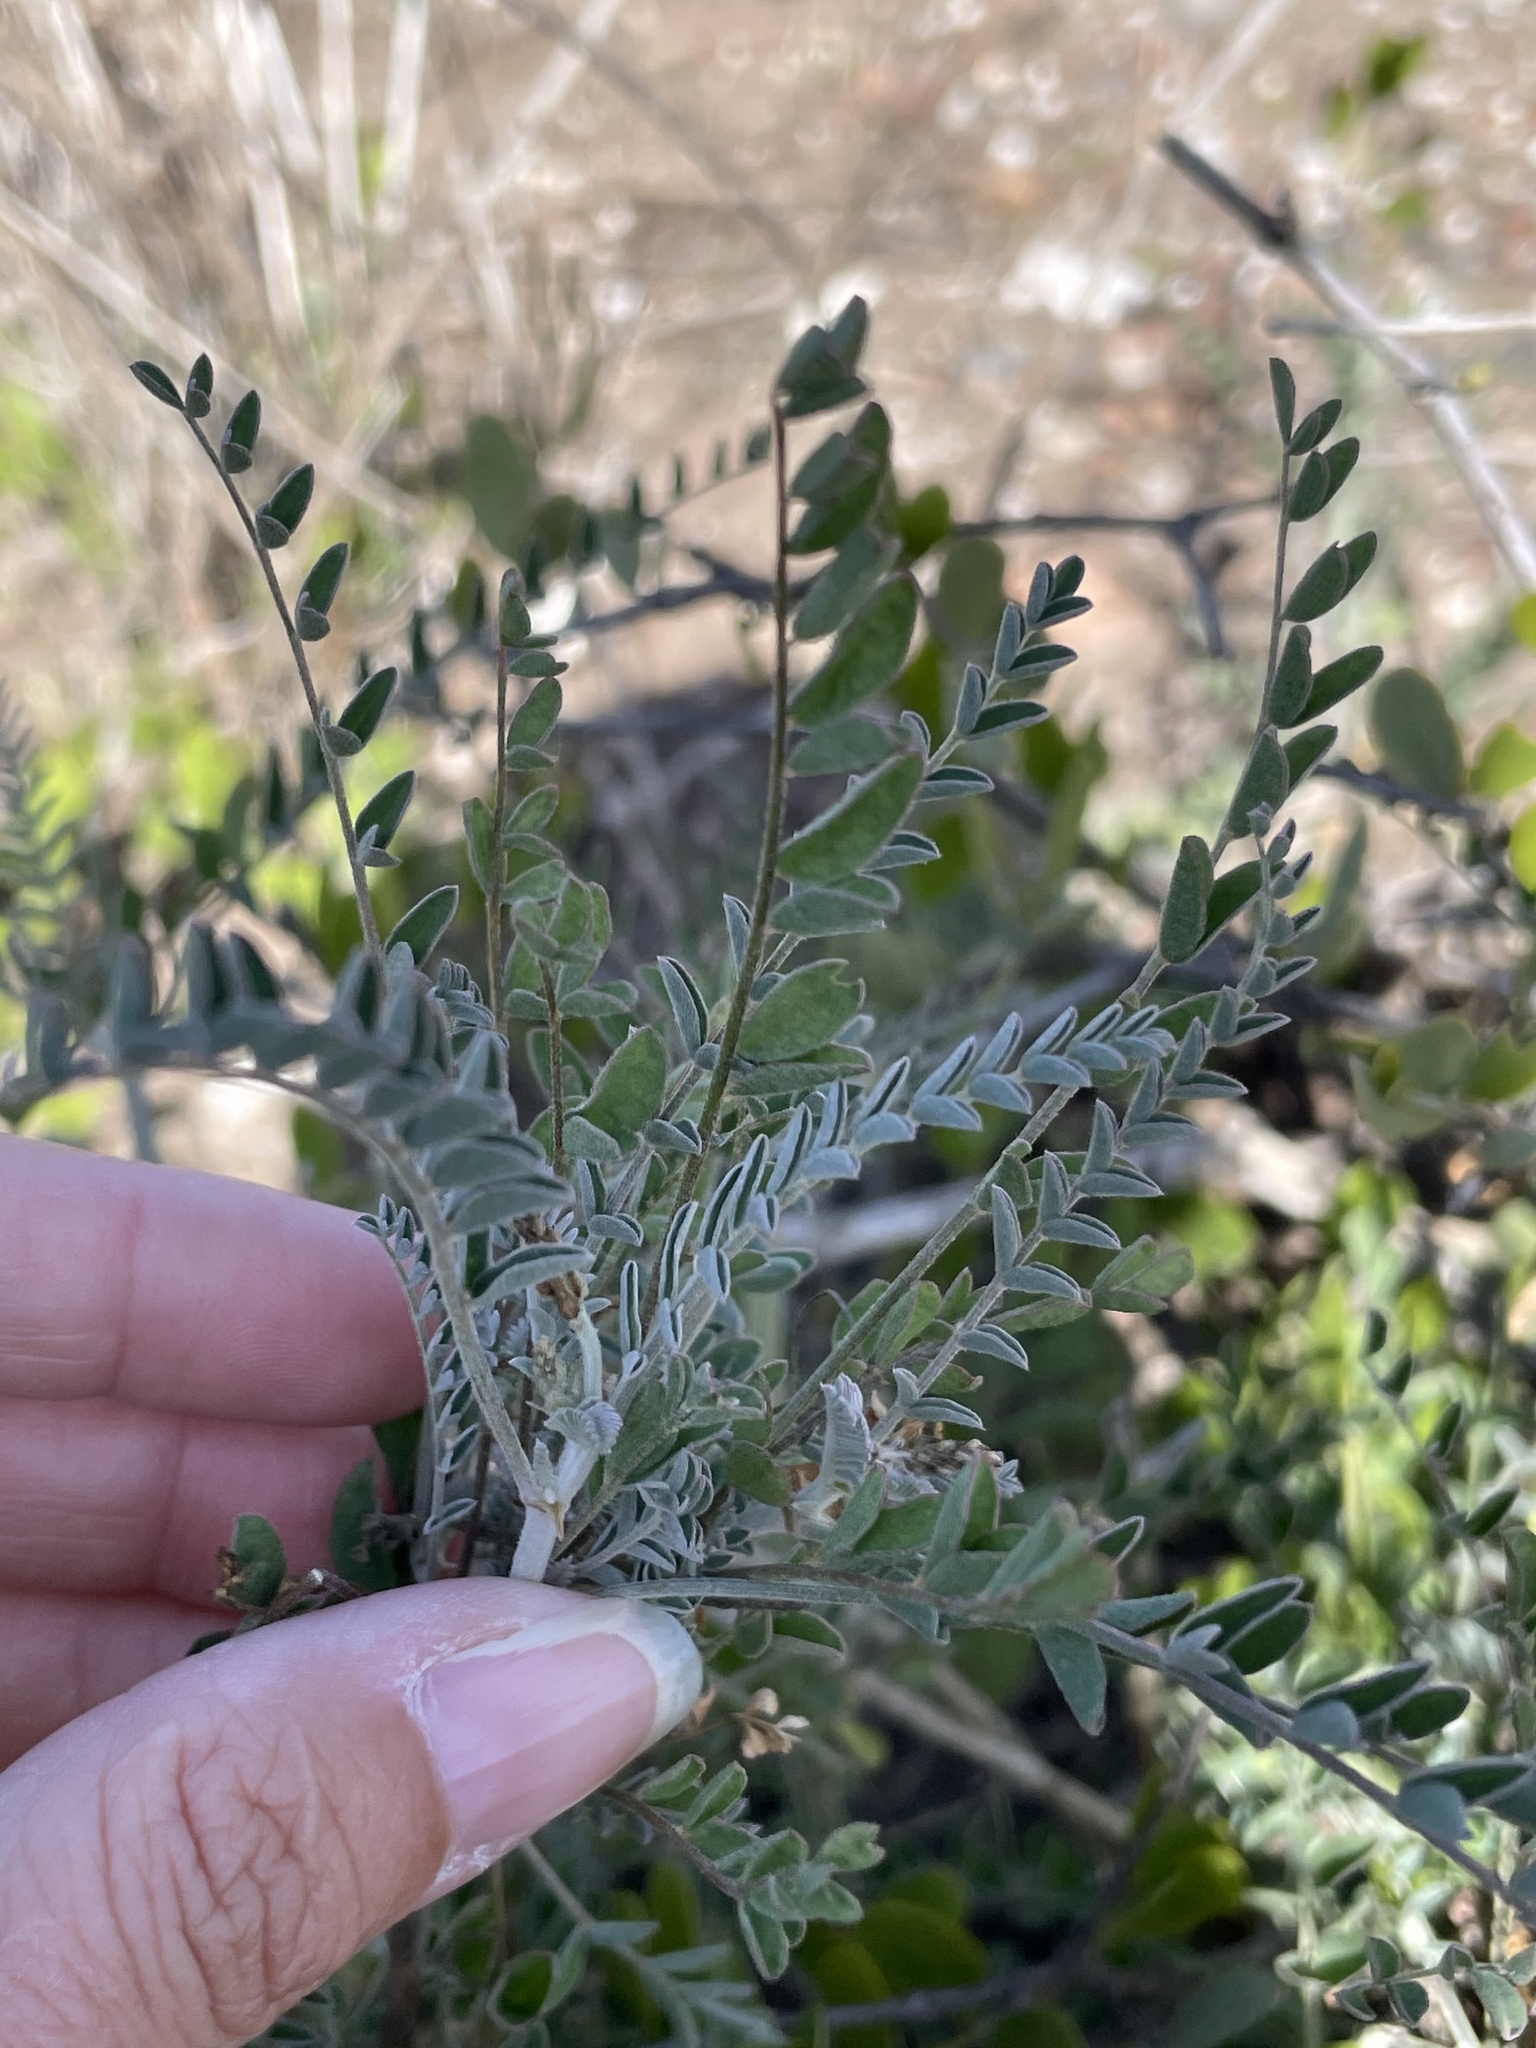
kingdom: Plantae
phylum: Tracheophyta
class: Magnoliopsida
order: Fabales
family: Fabaceae
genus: Astragalus
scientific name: Astragalus fastidius
